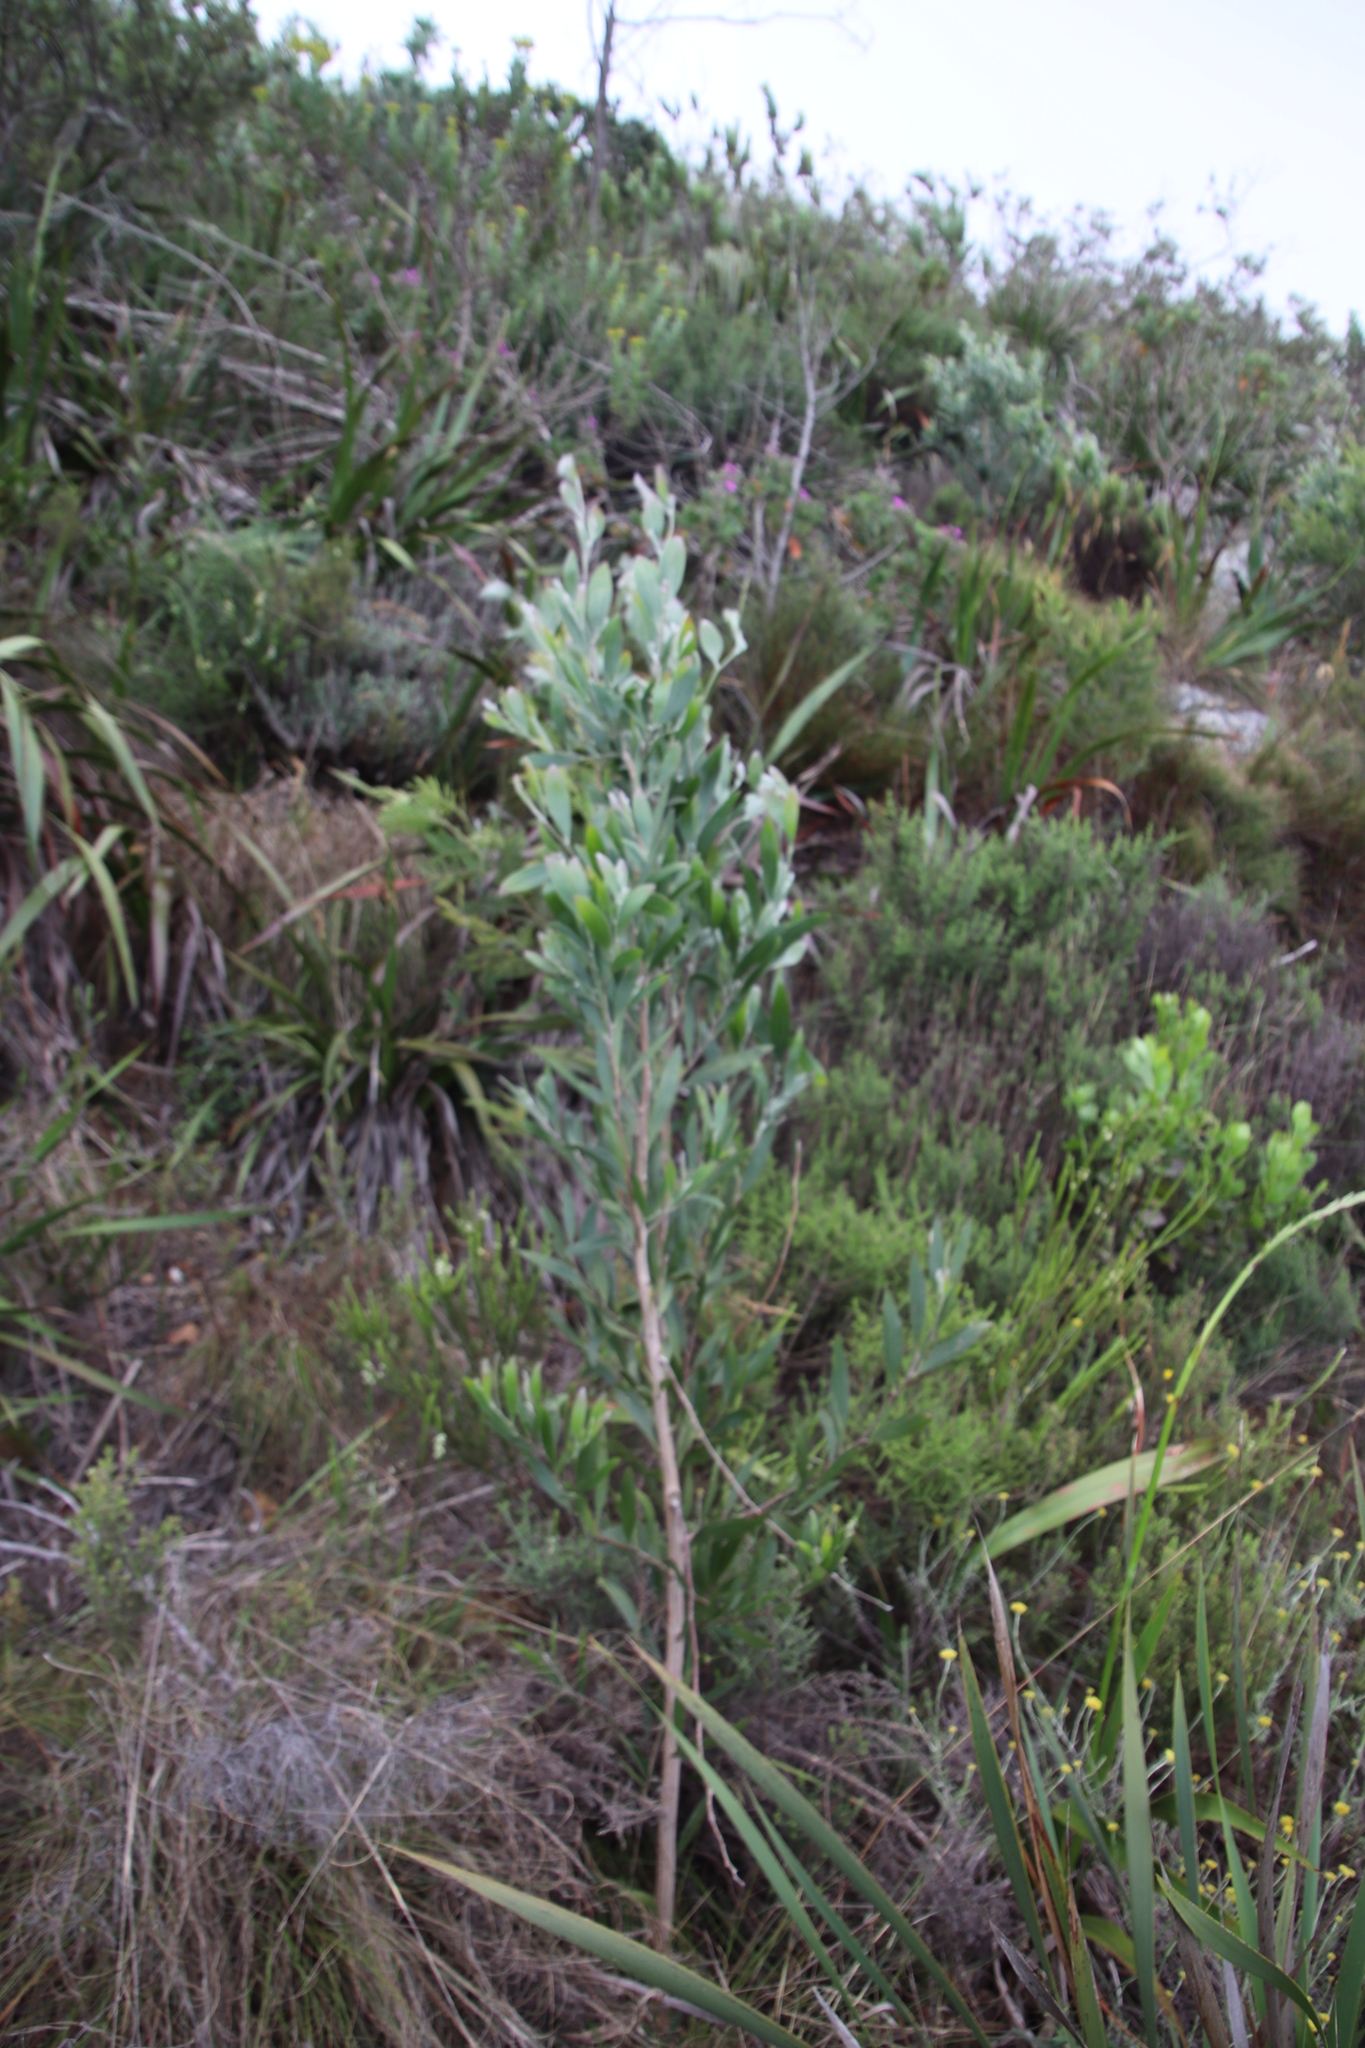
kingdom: Plantae
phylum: Tracheophyta
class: Magnoliopsida
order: Fabales
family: Fabaceae
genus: Acacia
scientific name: Acacia melanoxylon
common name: Blackwood
